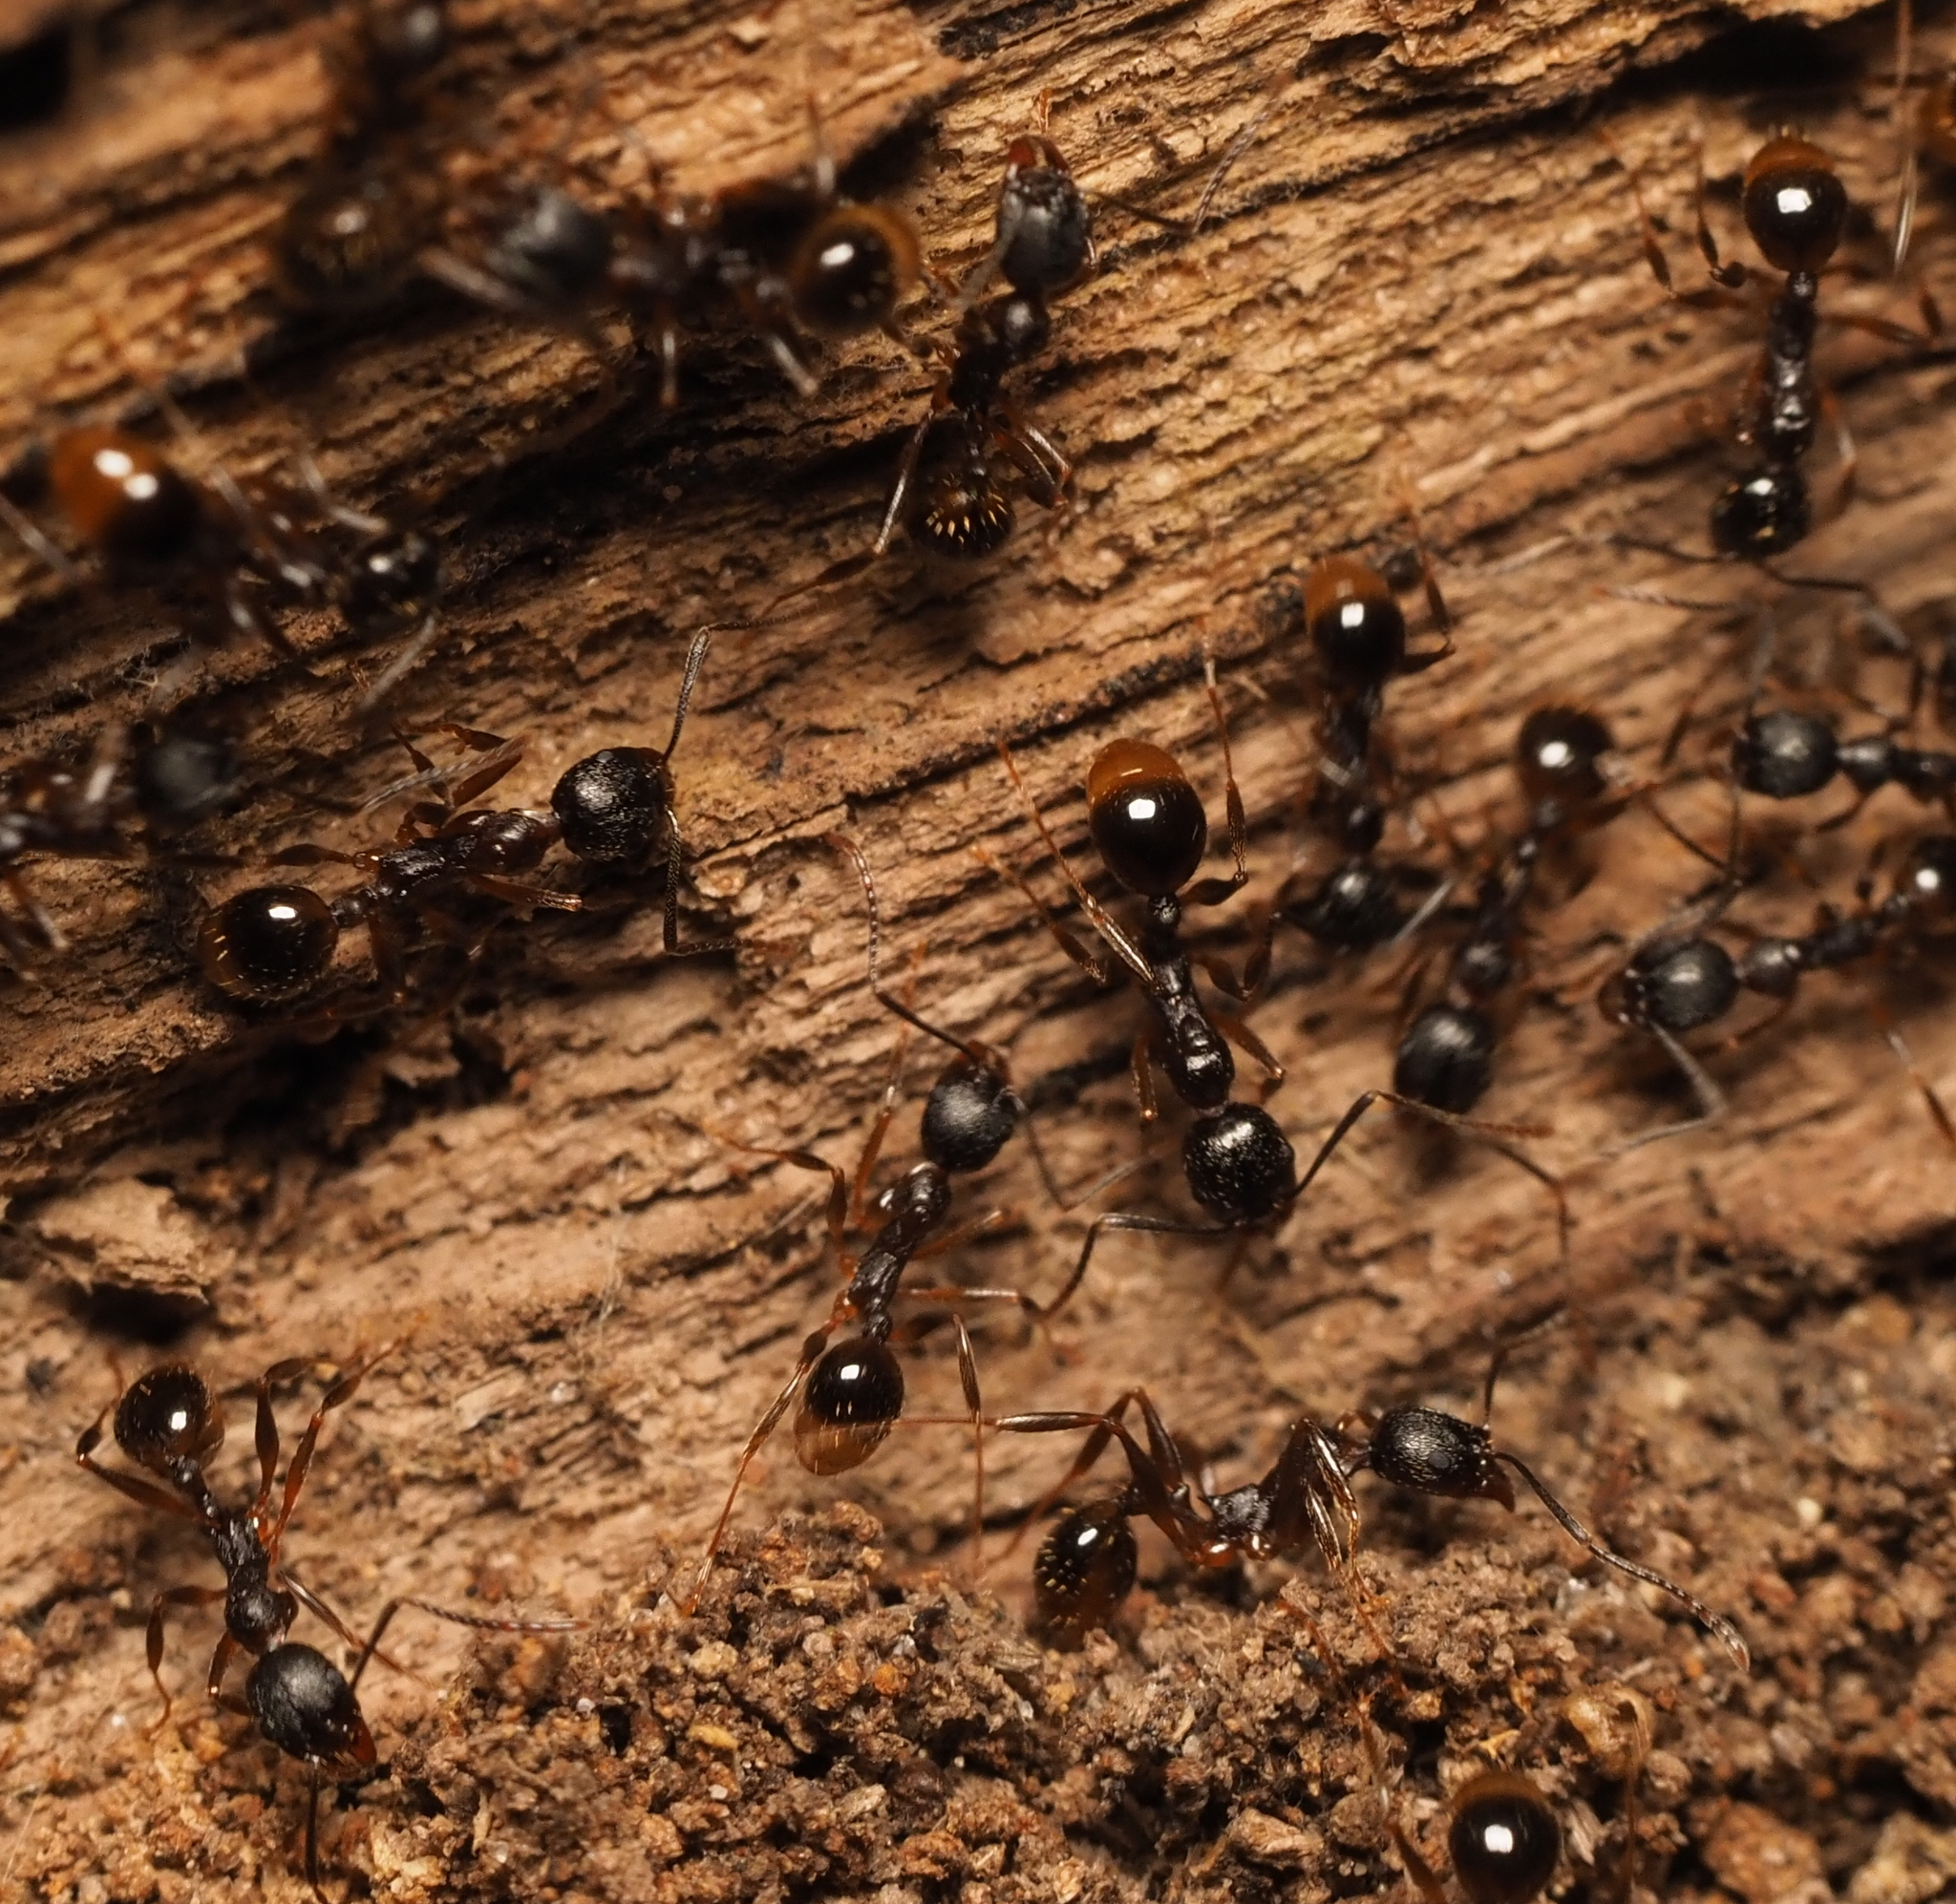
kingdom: Animalia
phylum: Arthropoda
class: Insecta
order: Hymenoptera
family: Formicidae
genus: Aphaenogaster
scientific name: Aphaenogaster picea
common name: Pitch-black collared ant
